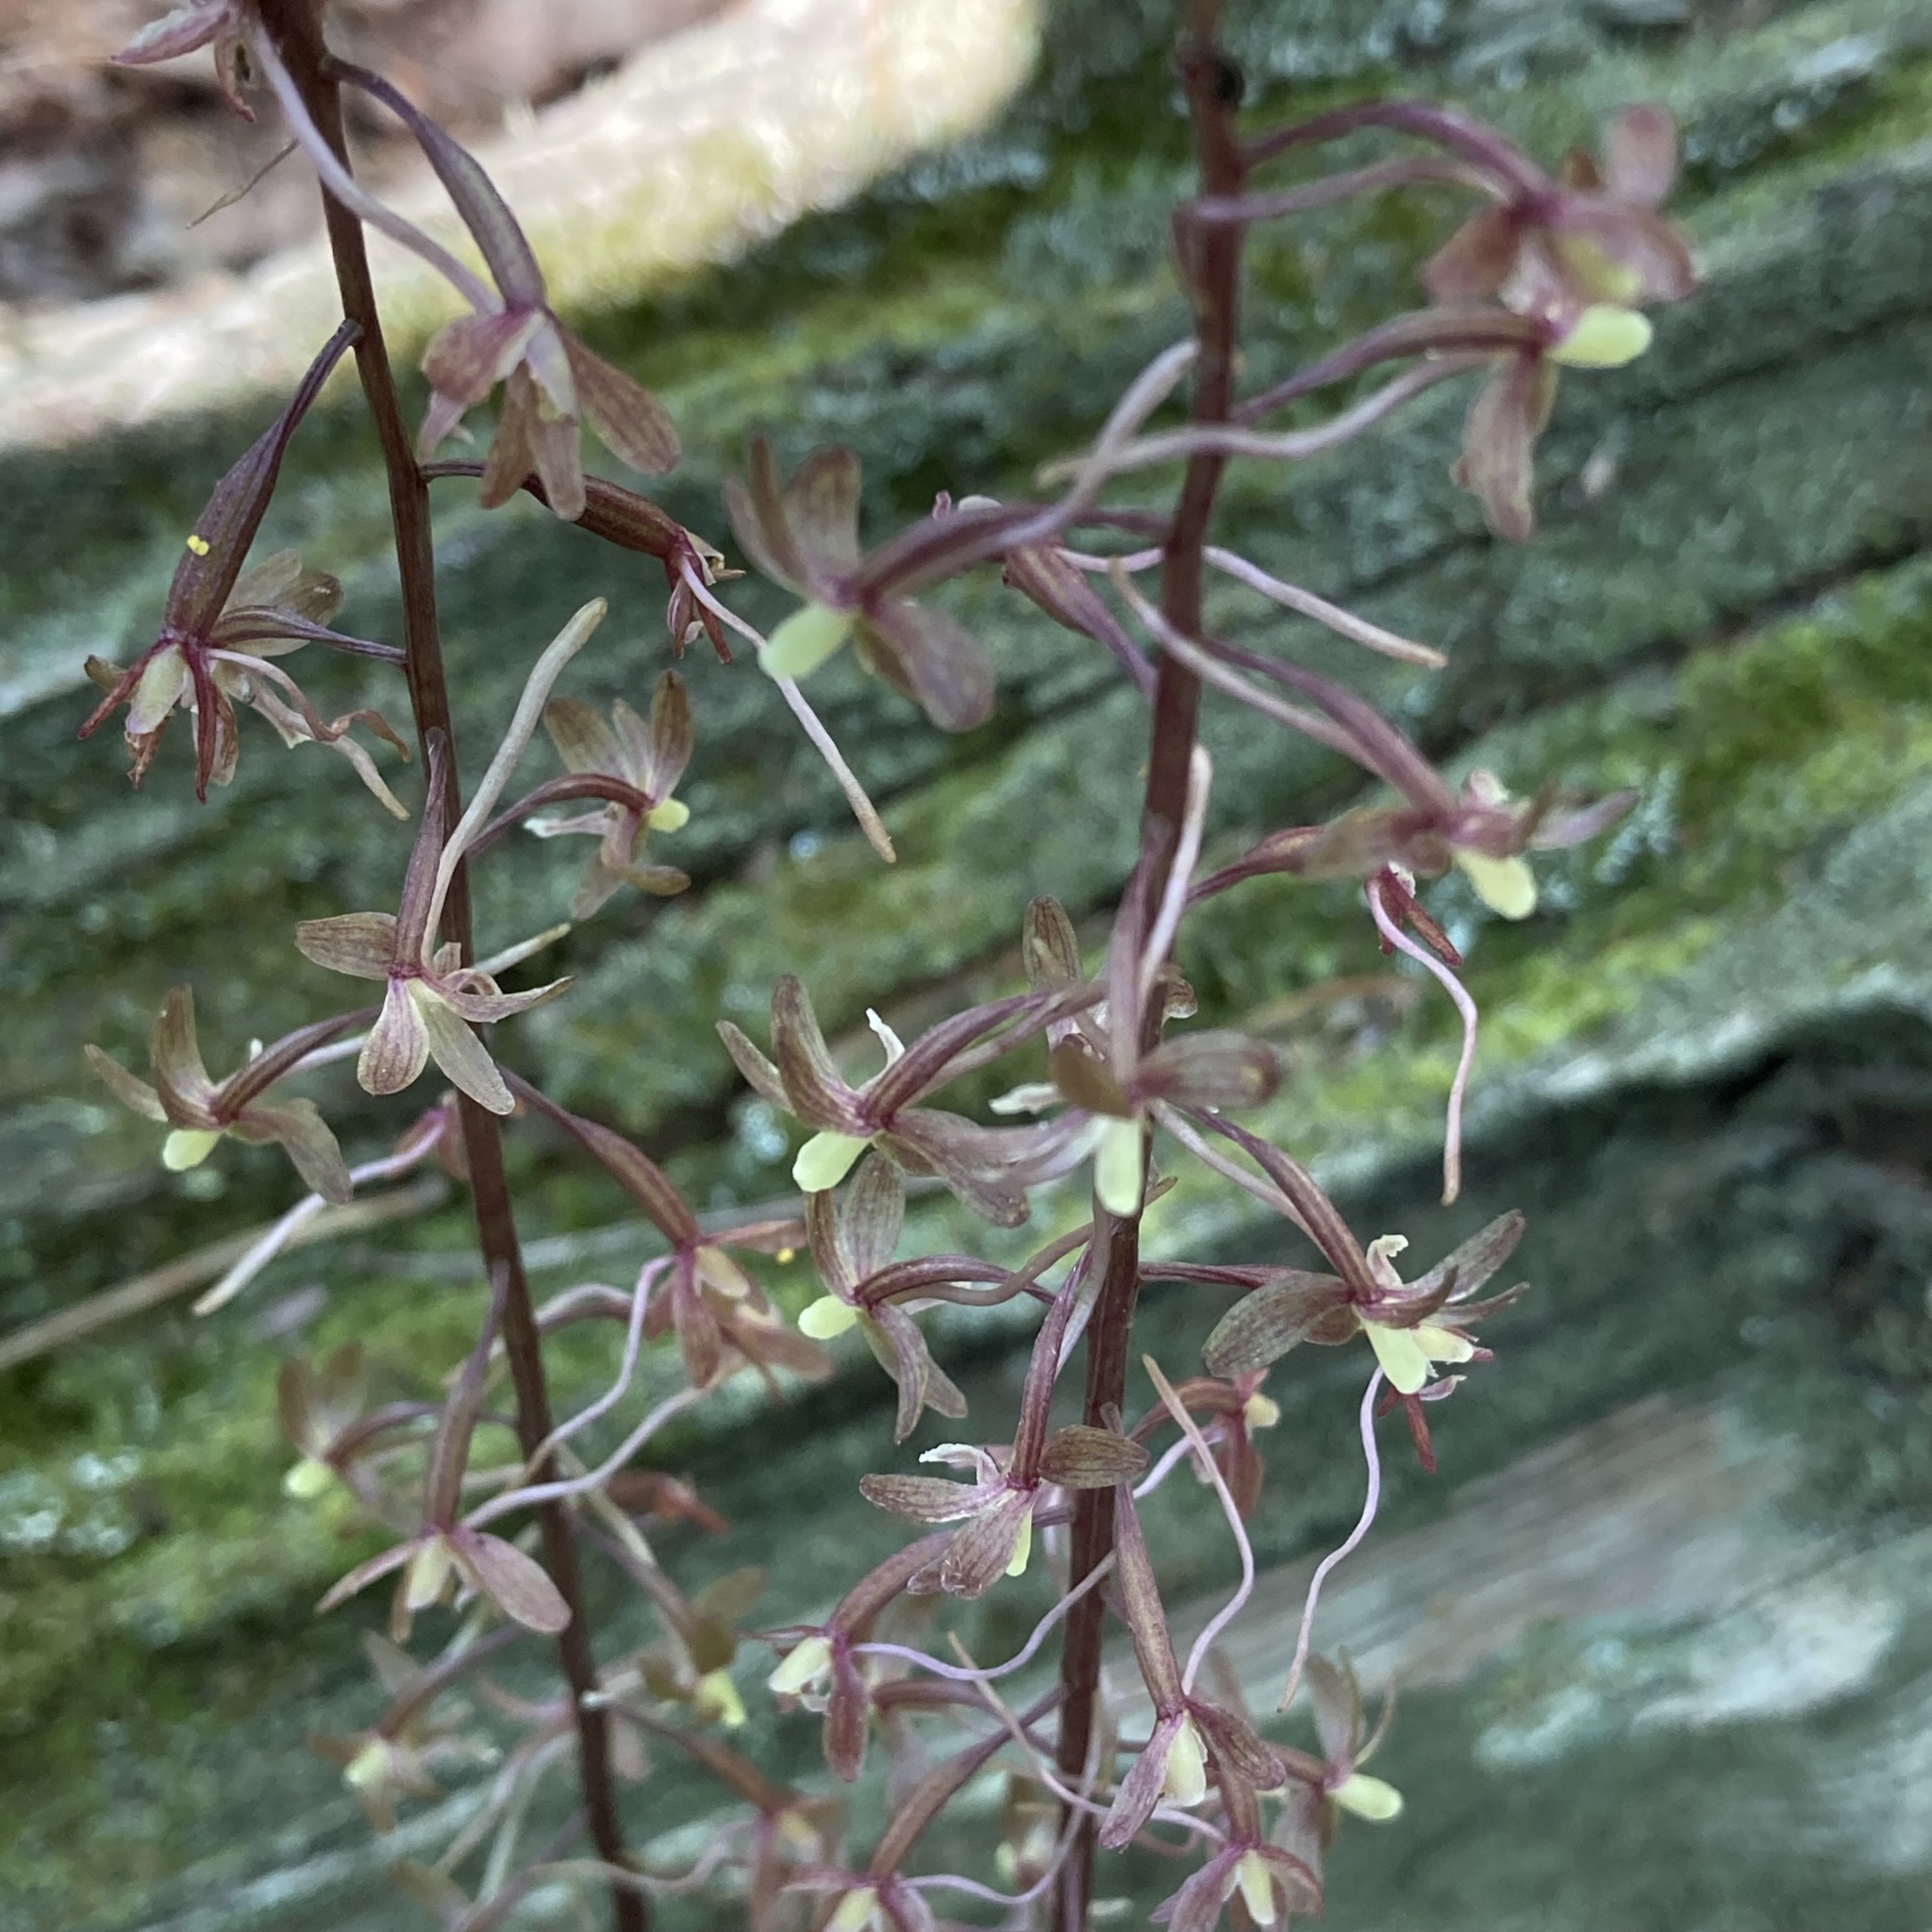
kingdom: Plantae
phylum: Tracheophyta
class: Liliopsida
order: Asparagales
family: Orchidaceae
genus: Tipularia
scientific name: Tipularia discolor
